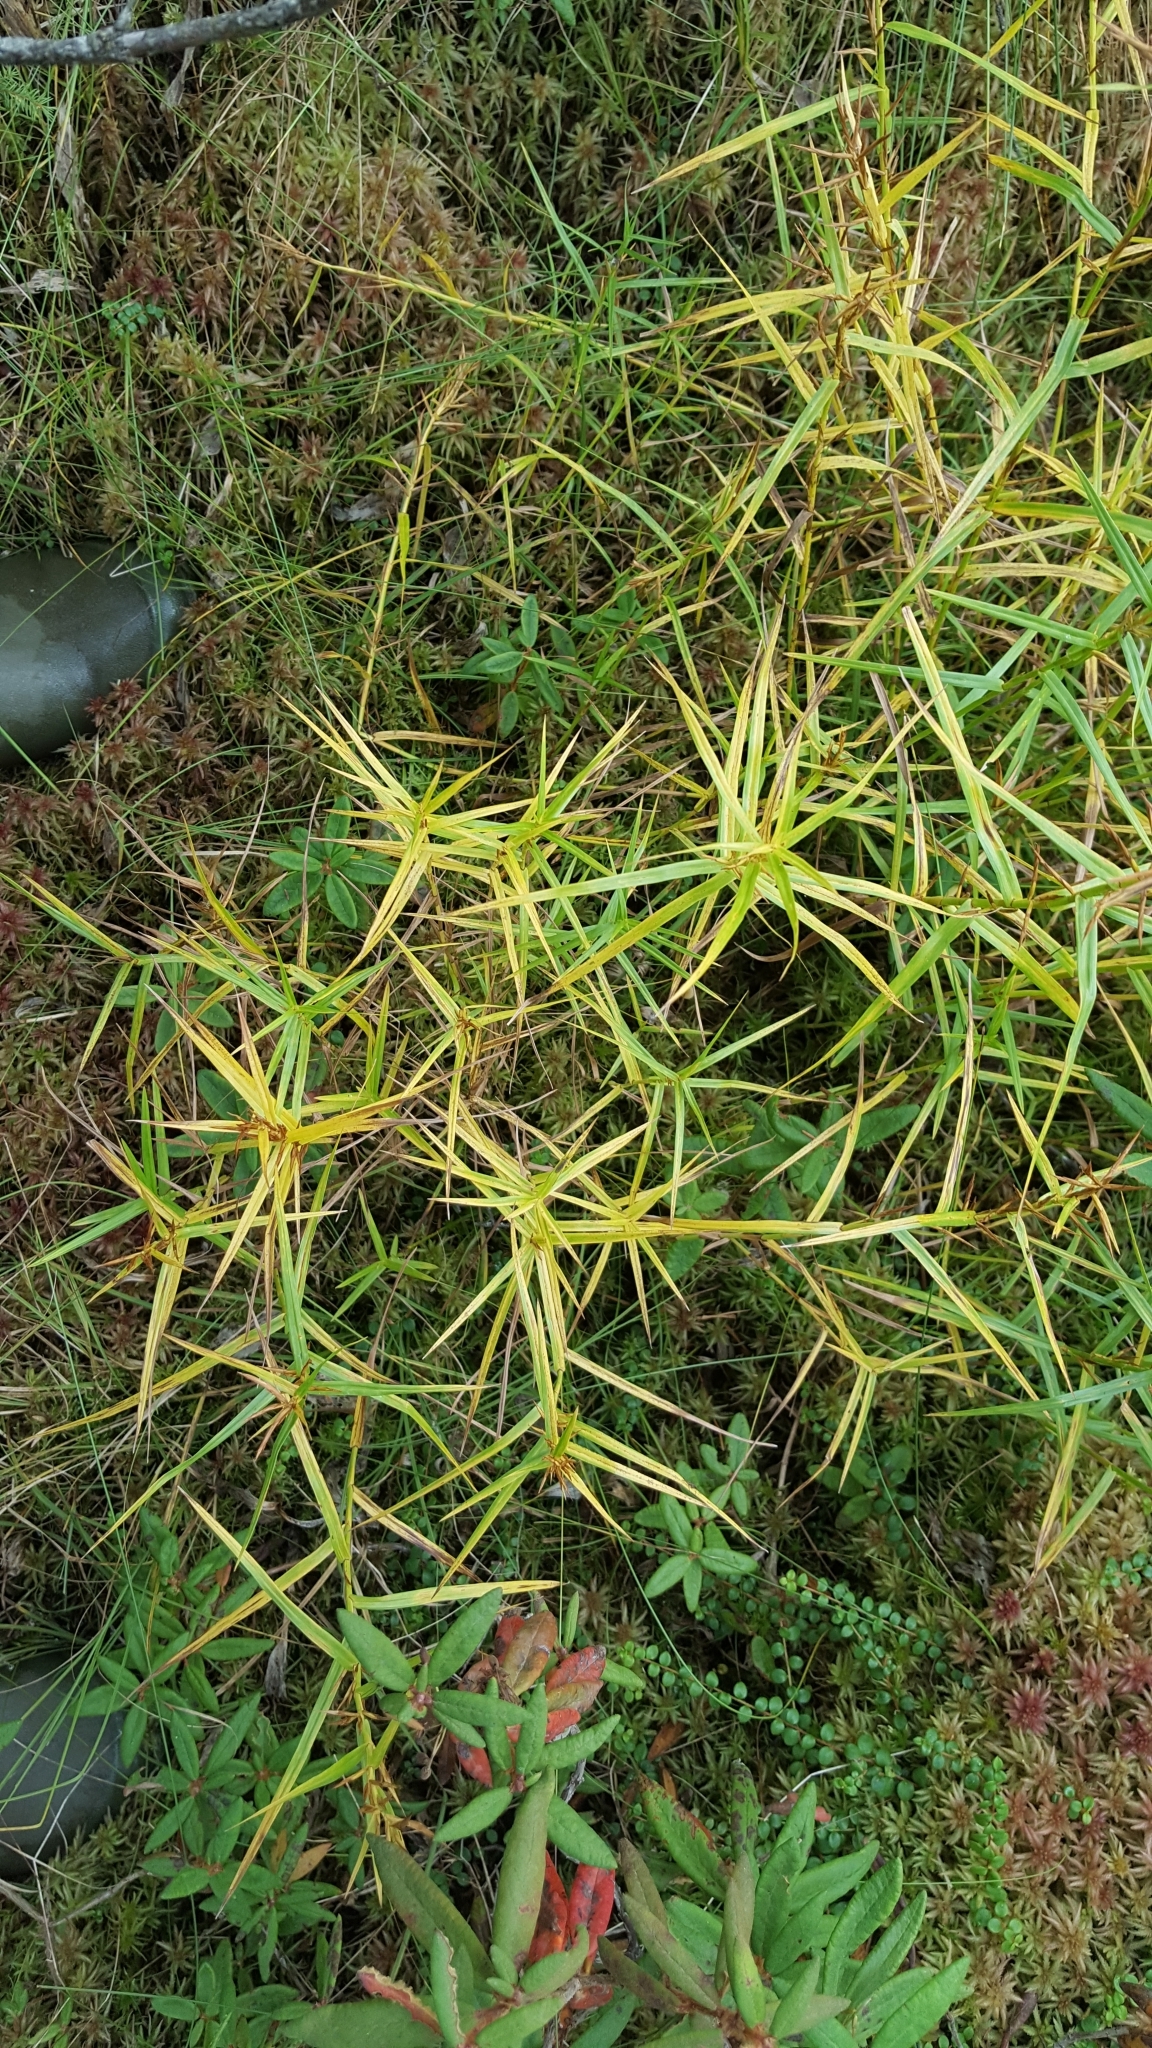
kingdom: Plantae
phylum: Tracheophyta
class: Liliopsida
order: Poales
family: Cyperaceae
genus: Dulichium
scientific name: Dulichium arundinaceum
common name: Three-way sedge
